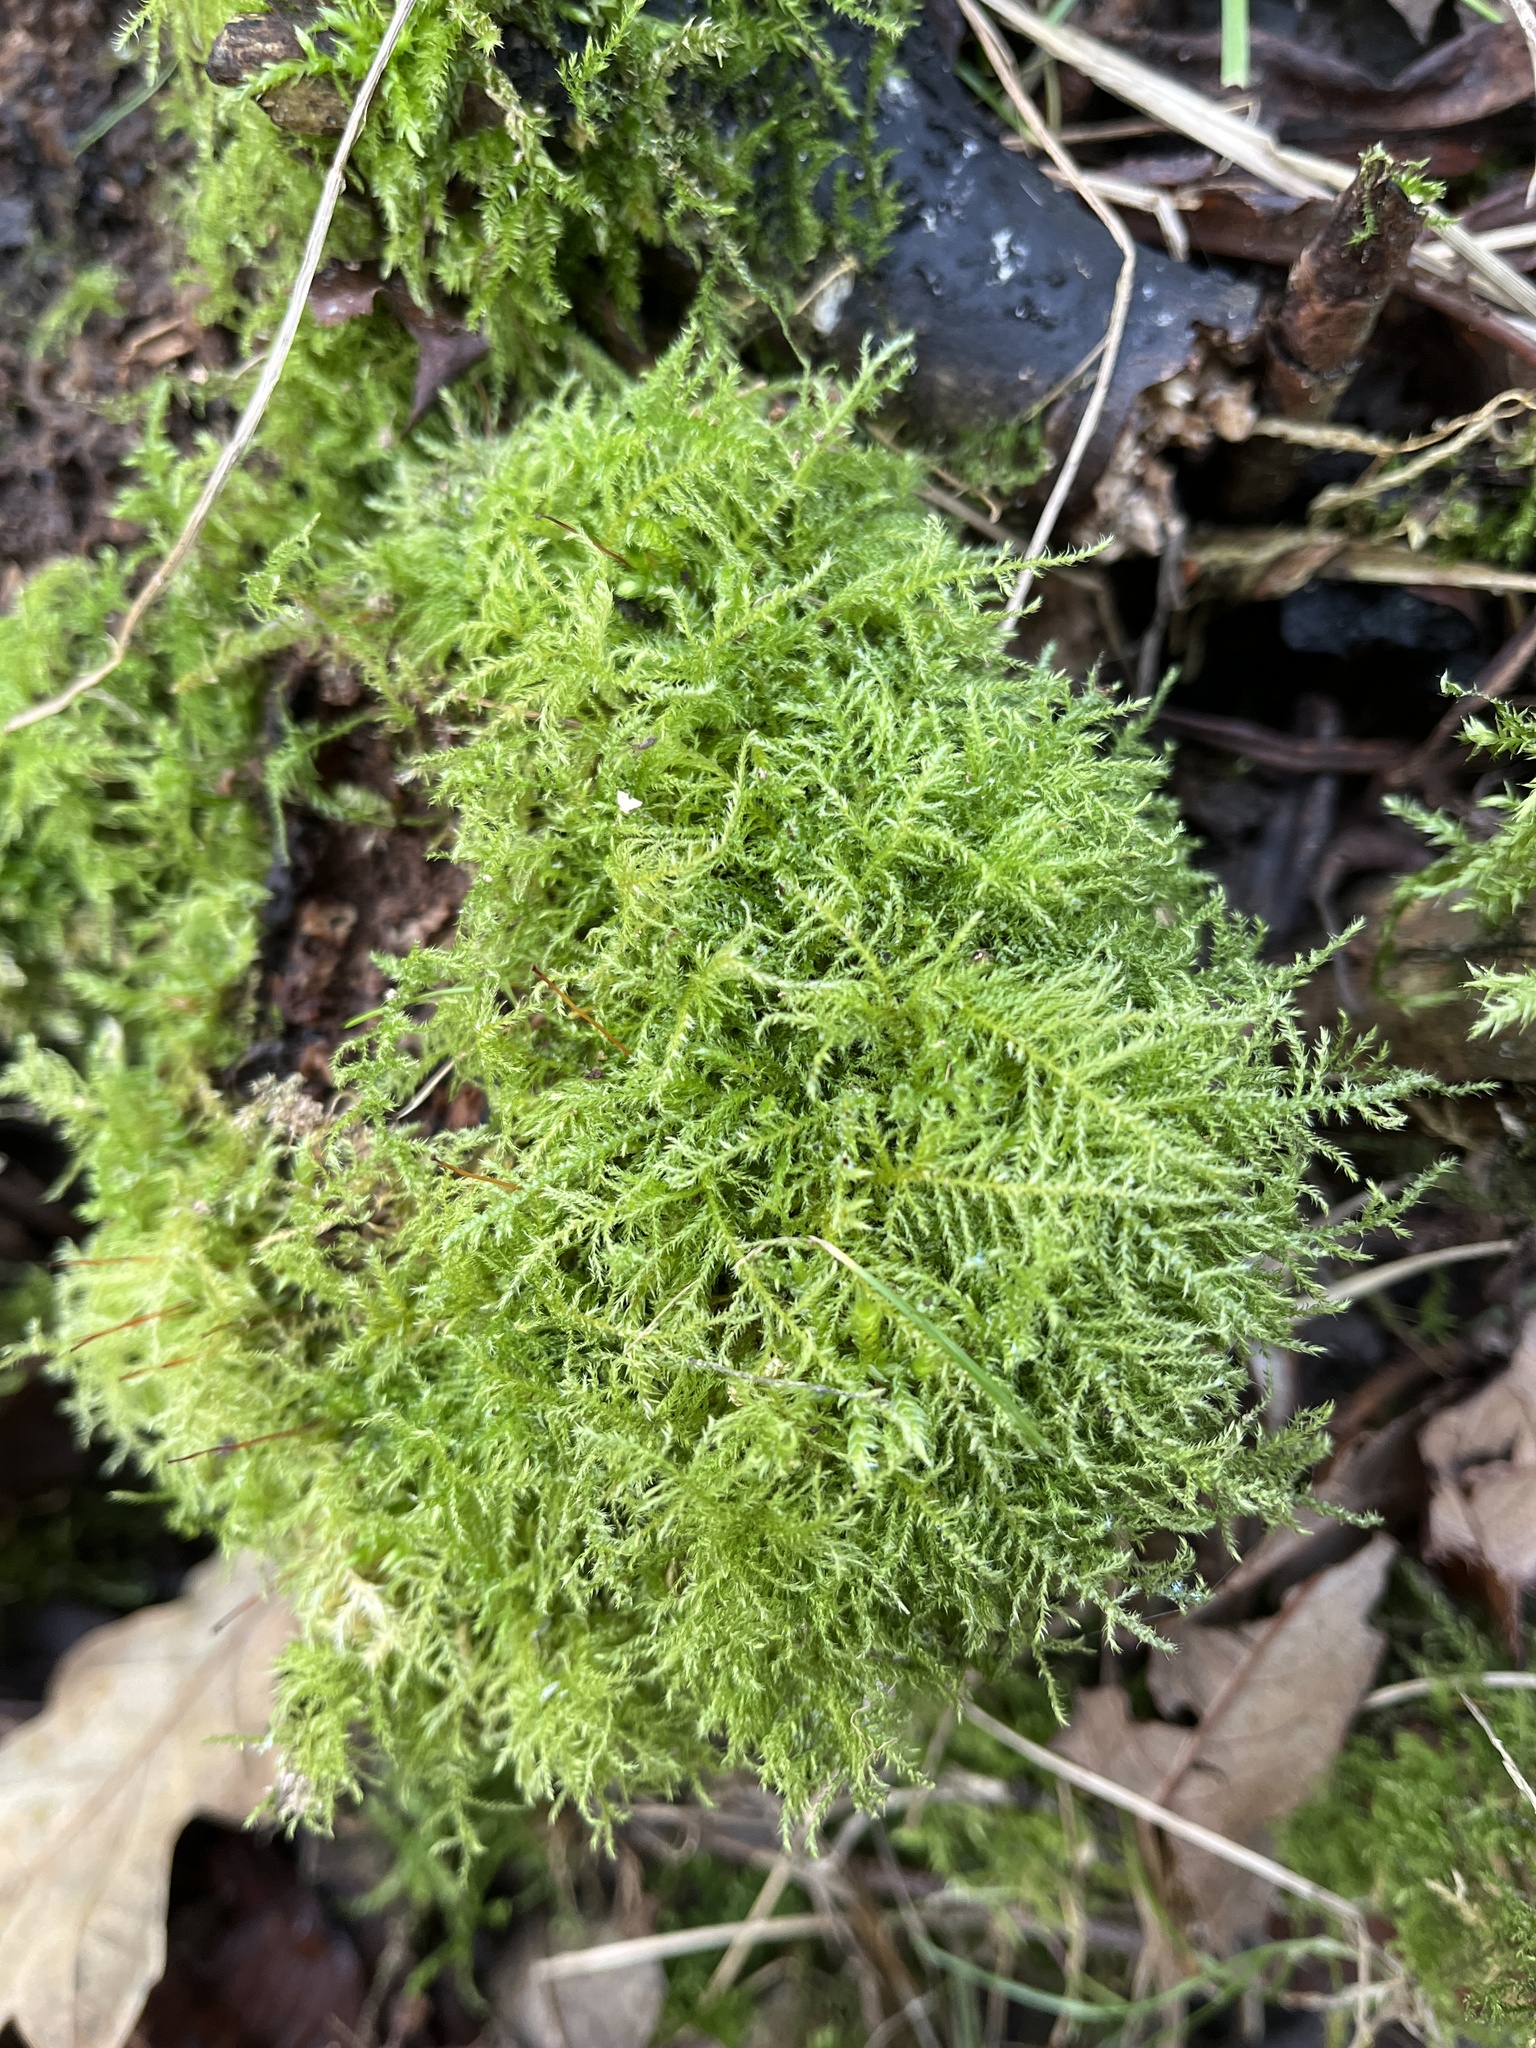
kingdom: Plantae
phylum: Bryophyta
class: Bryopsida
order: Hypnales
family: Brachytheciaceae
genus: Kindbergia
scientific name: Kindbergia praelonga
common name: Slender beaked moss
